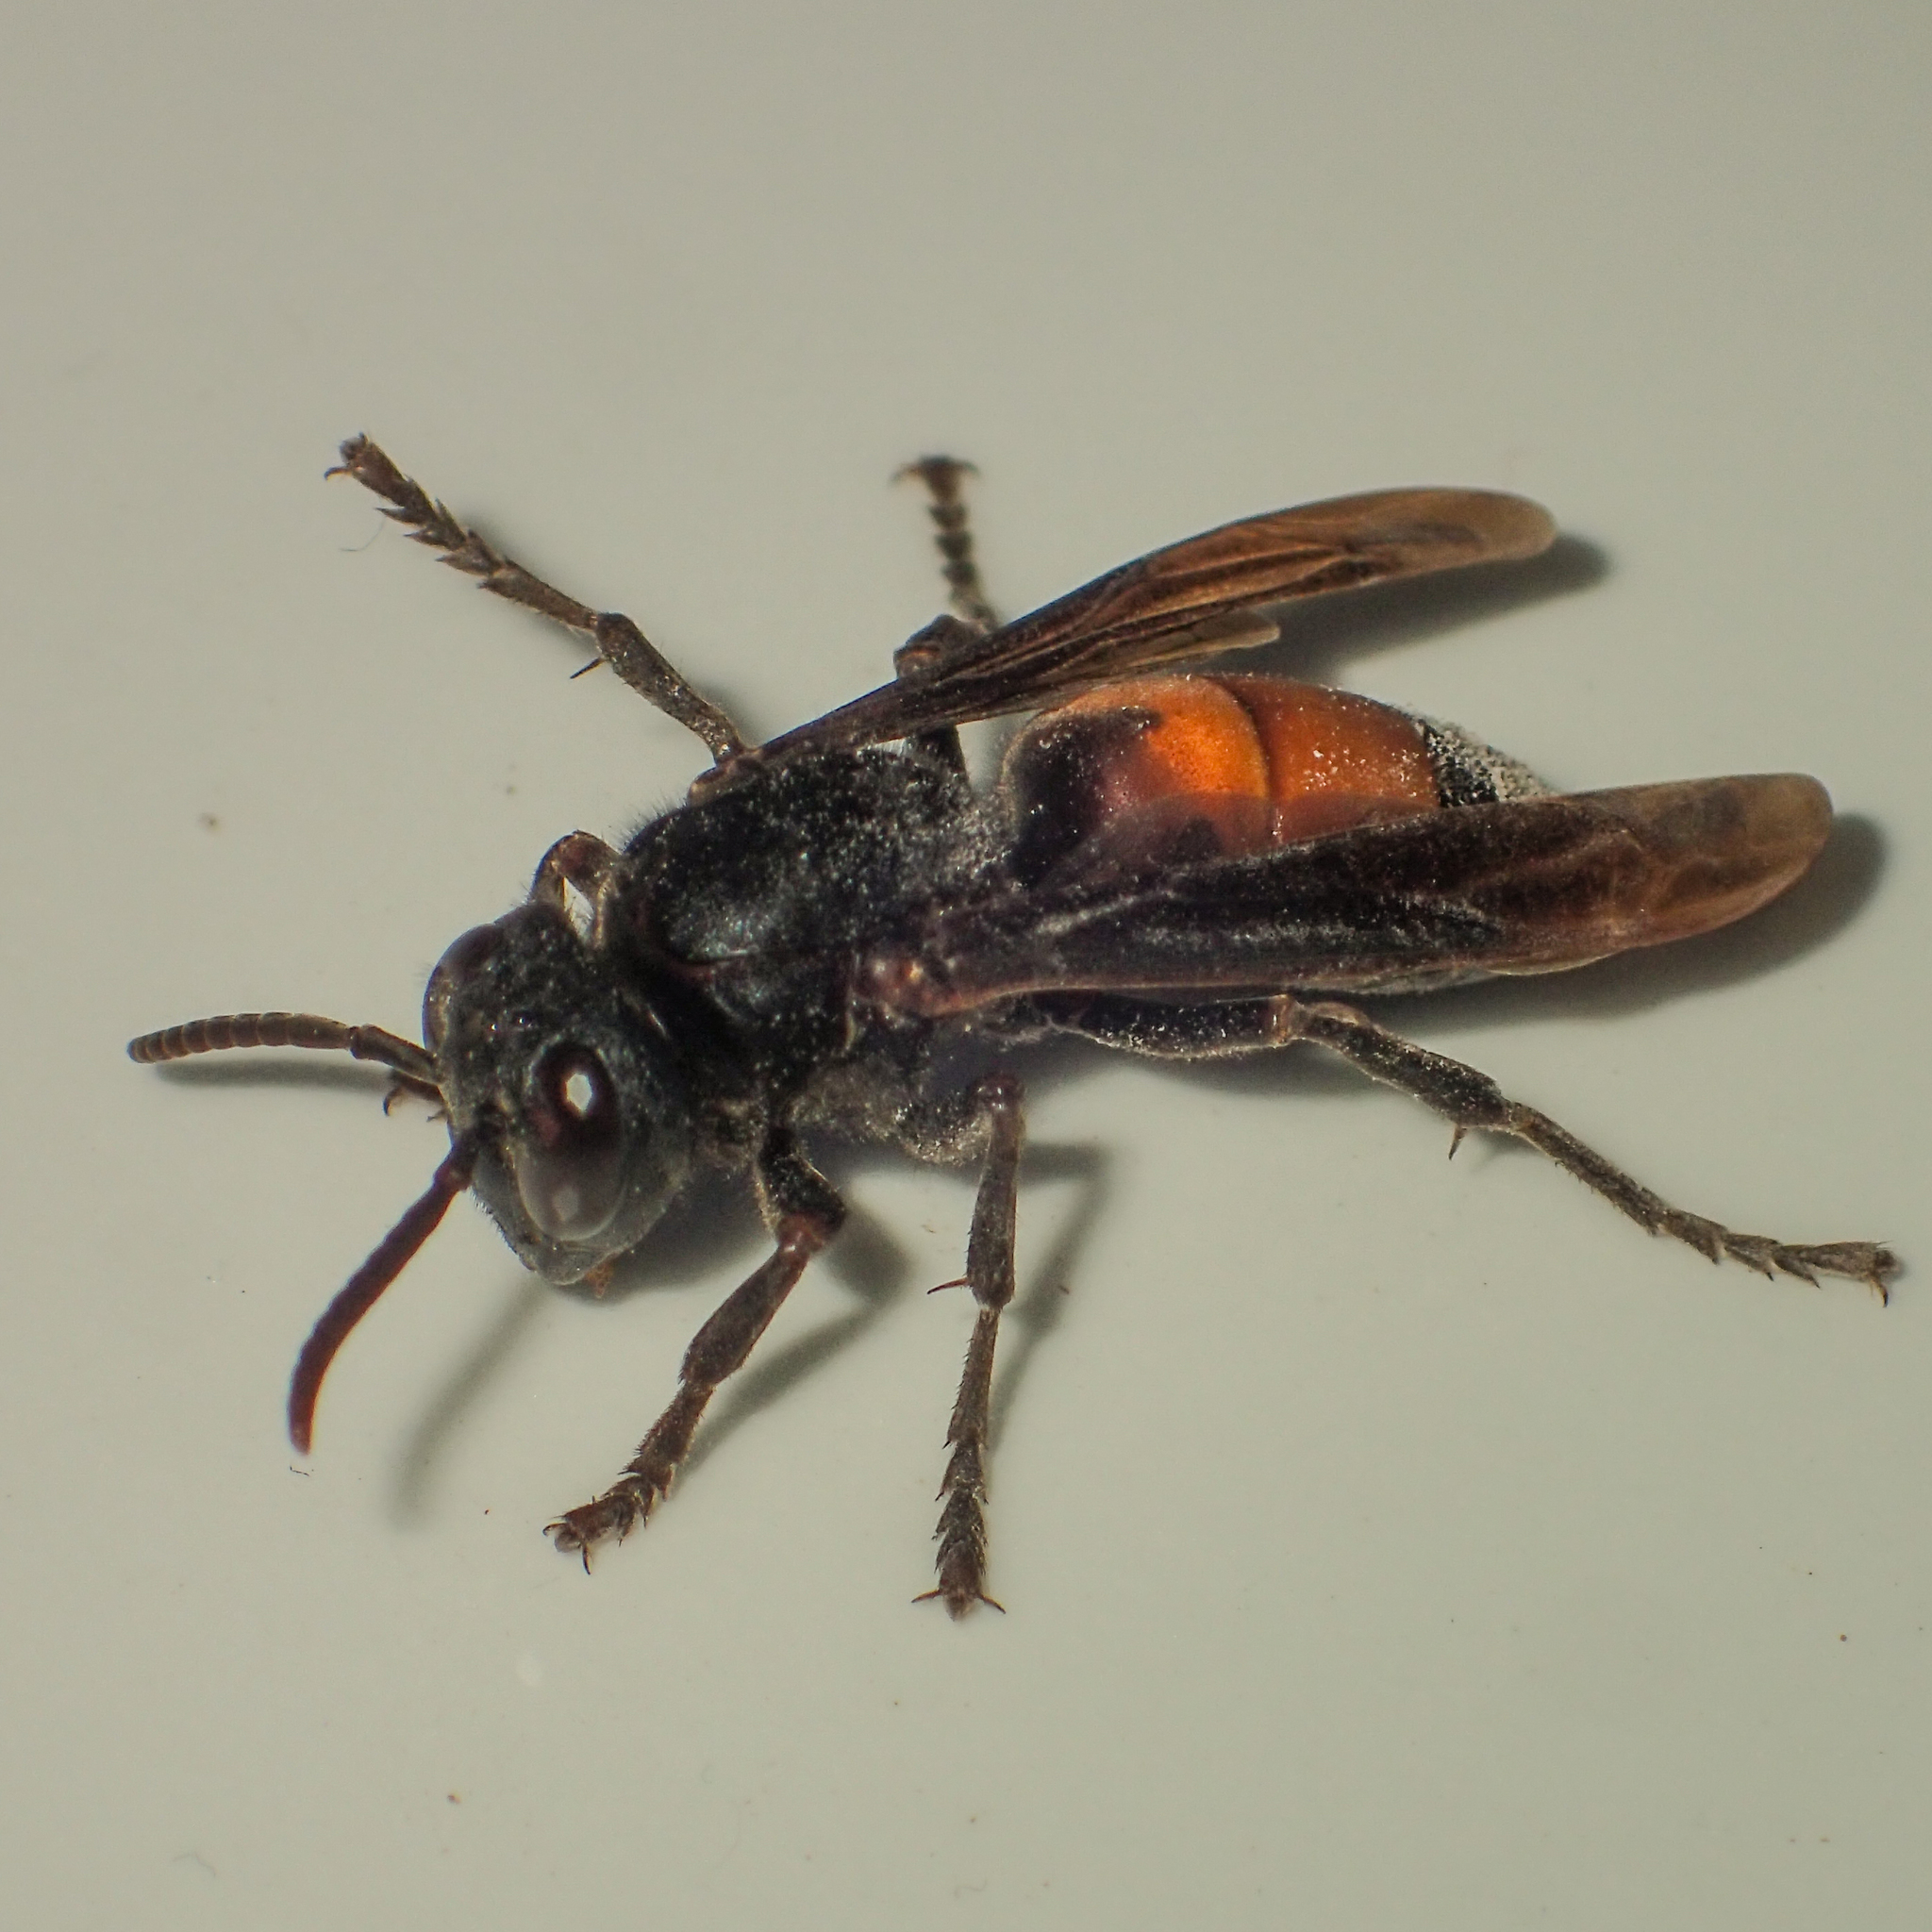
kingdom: Animalia
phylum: Arthropoda
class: Insecta
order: Hymenoptera
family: Vespidae
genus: Vespa
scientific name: Vespa affinis
